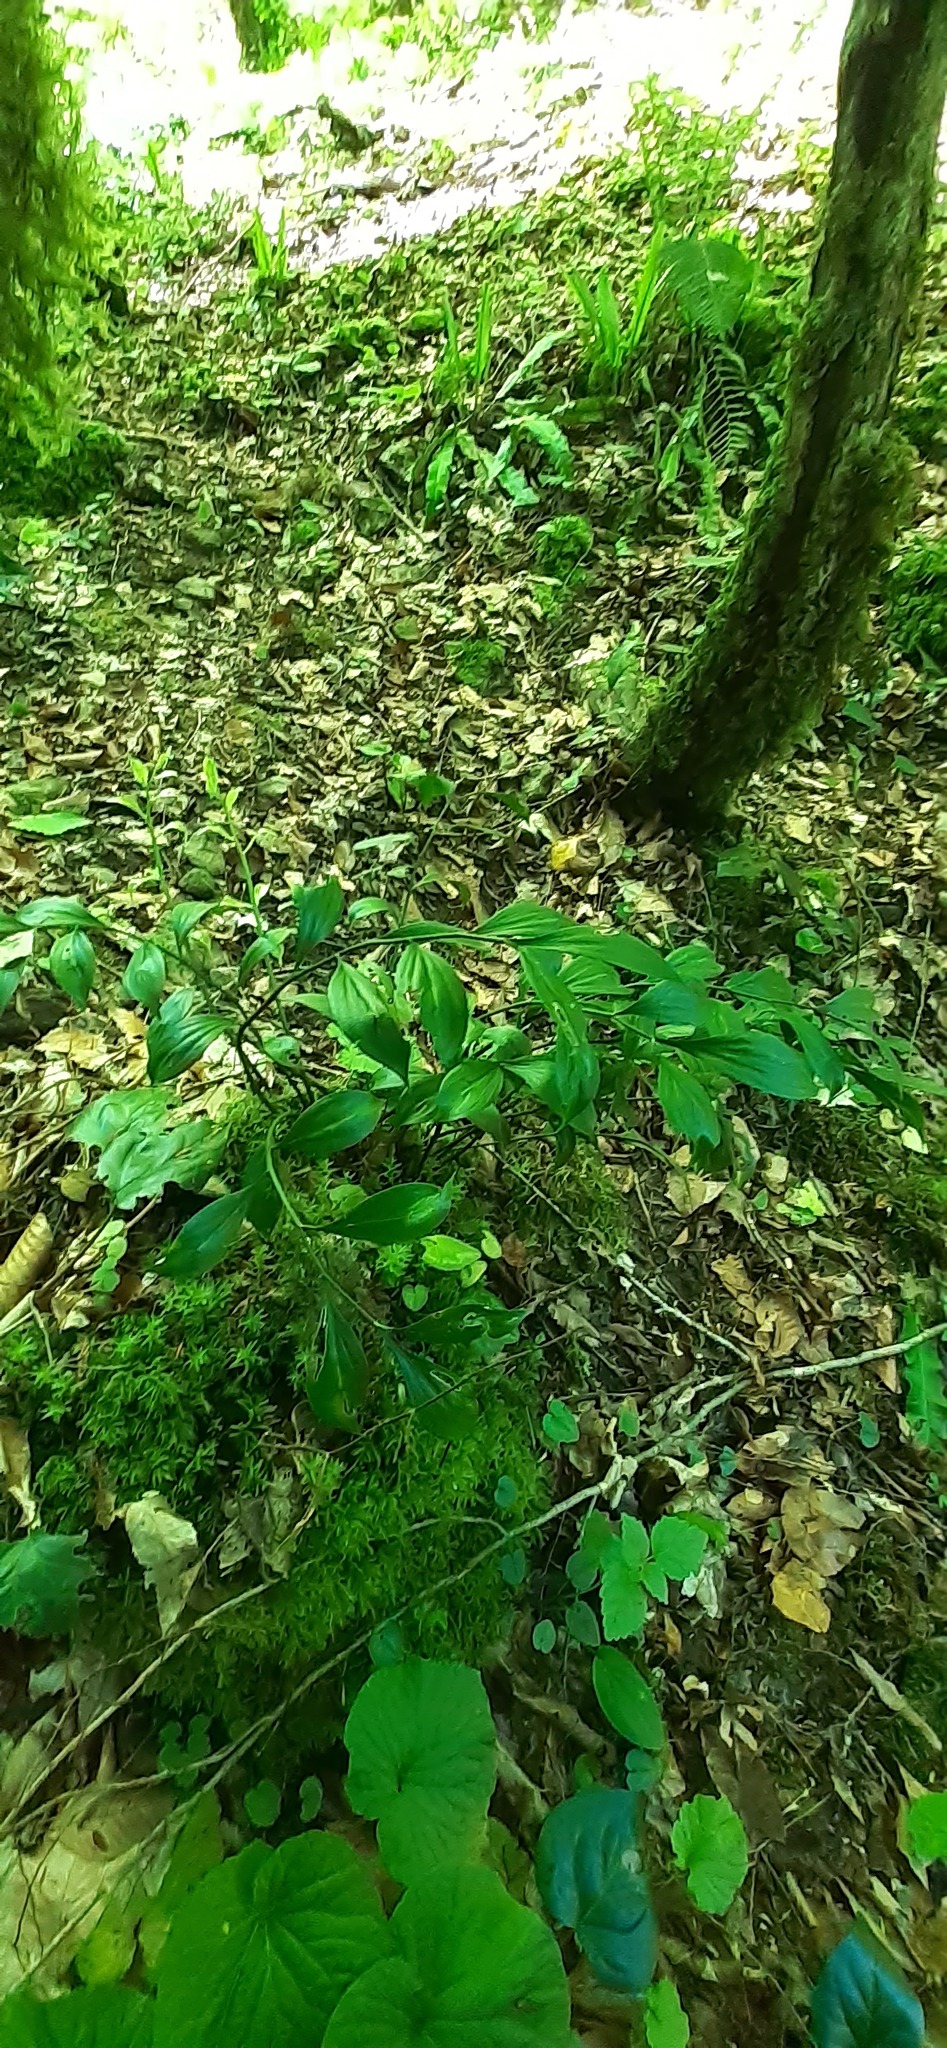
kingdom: Plantae
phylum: Tracheophyta
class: Liliopsida
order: Asparagales
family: Asparagaceae
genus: Ruscus
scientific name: Ruscus colchicus
